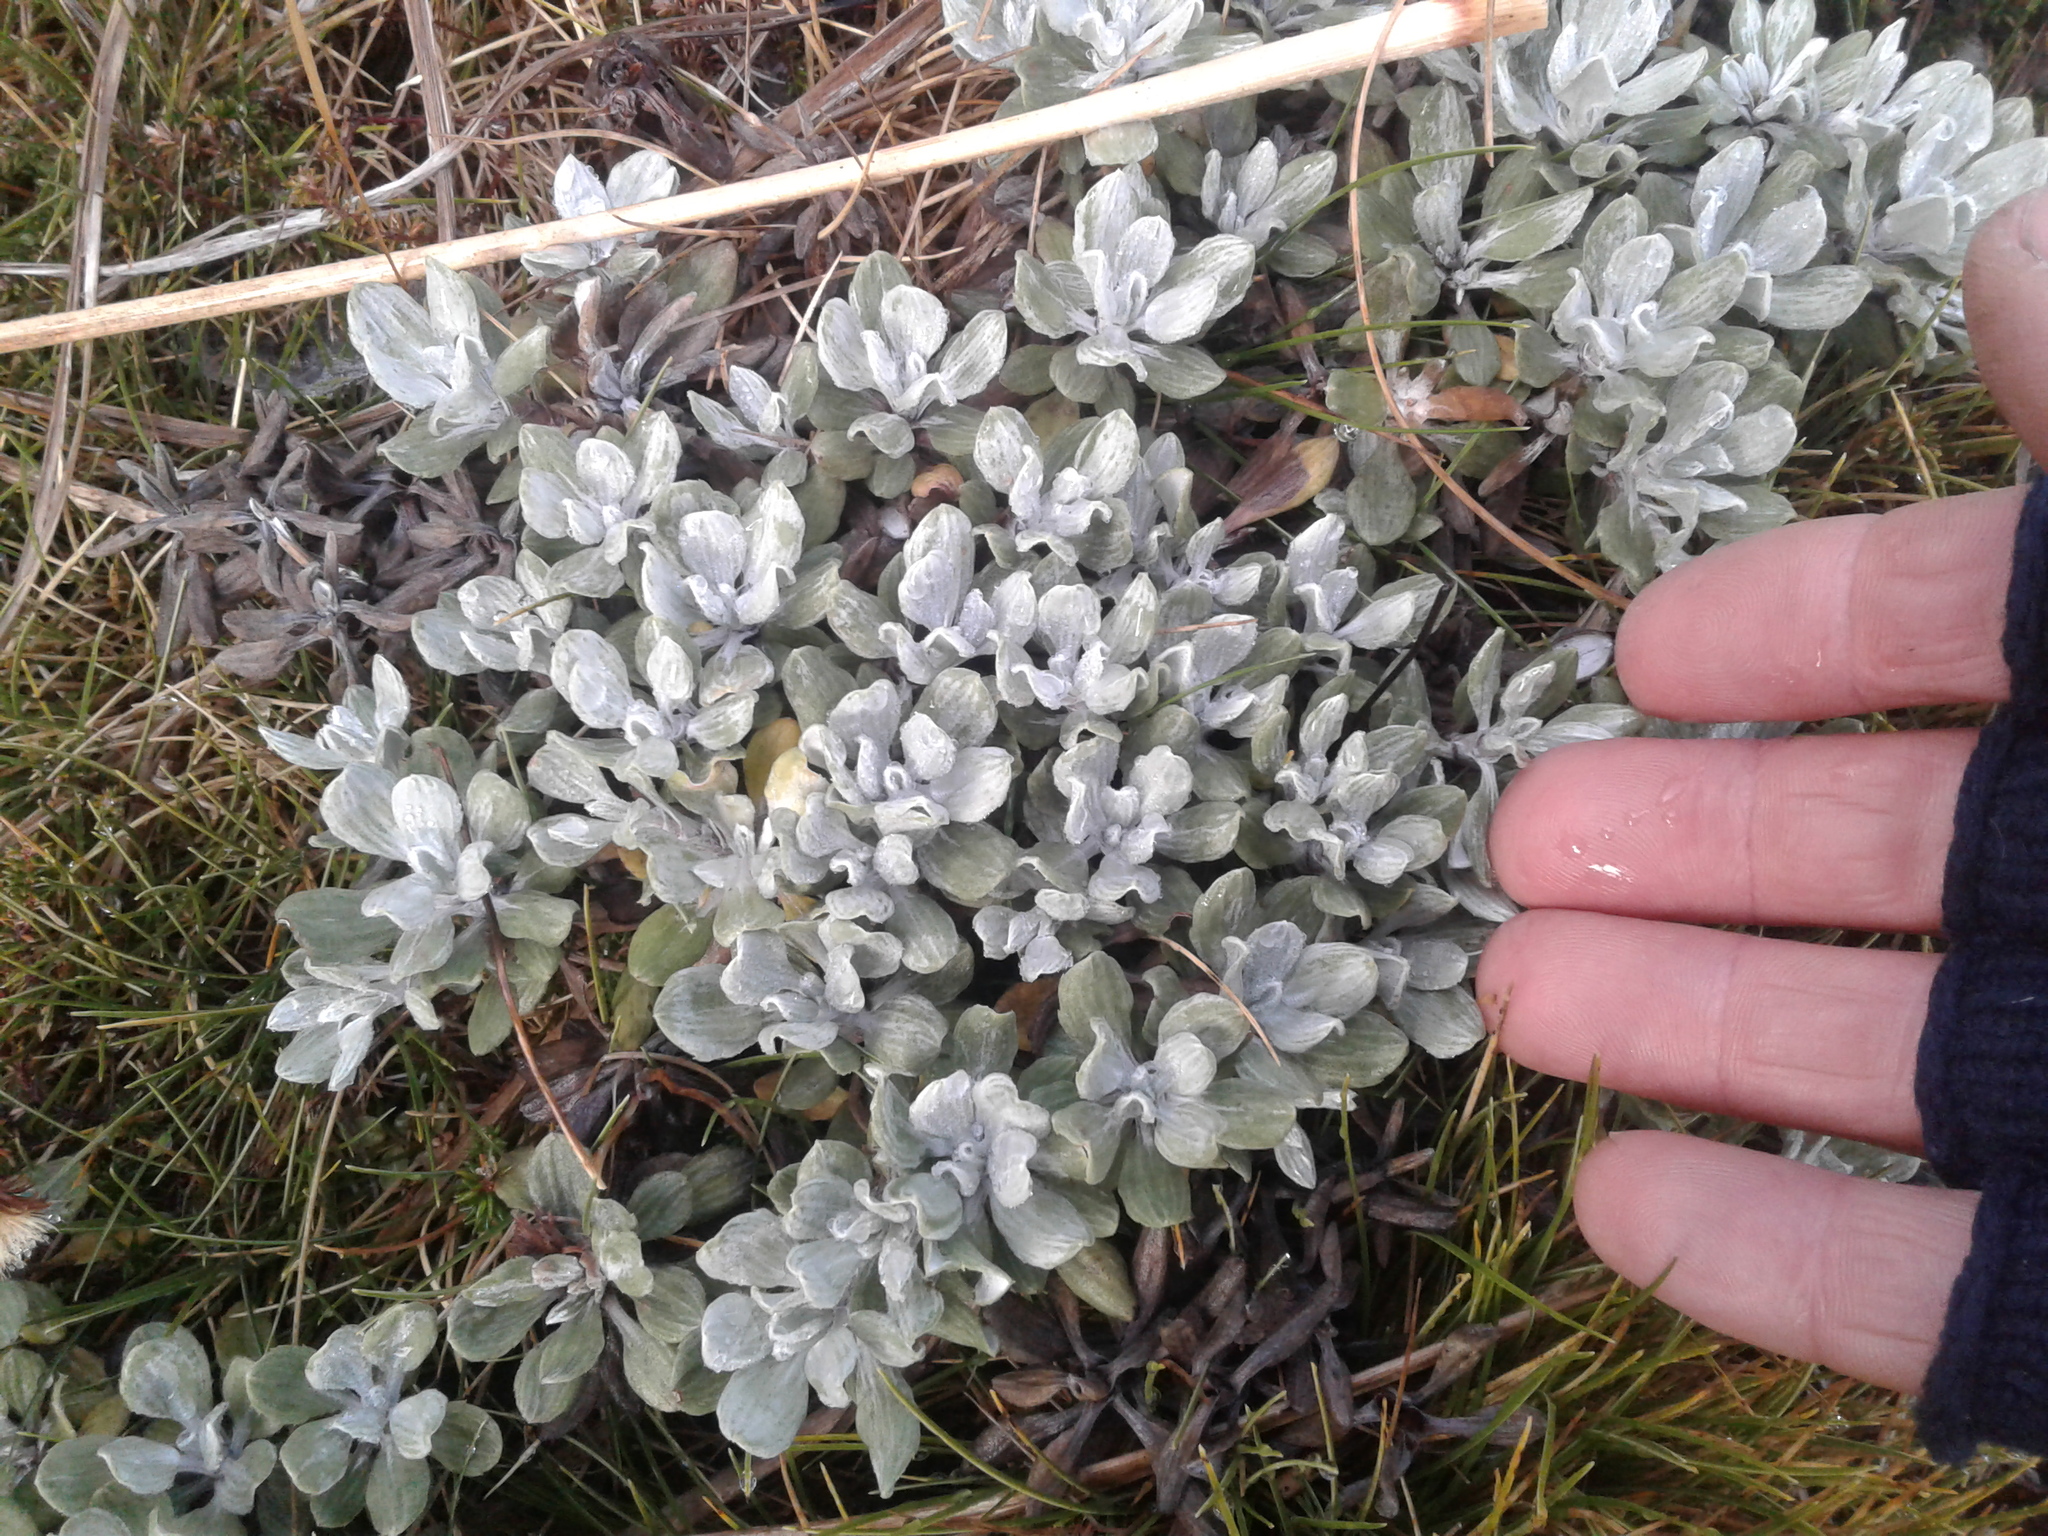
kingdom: Plantae
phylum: Tracheophyta
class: Magnoliopsida
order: Asterales
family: Asteraceae
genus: Celmisia
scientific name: Celmisia discolor
